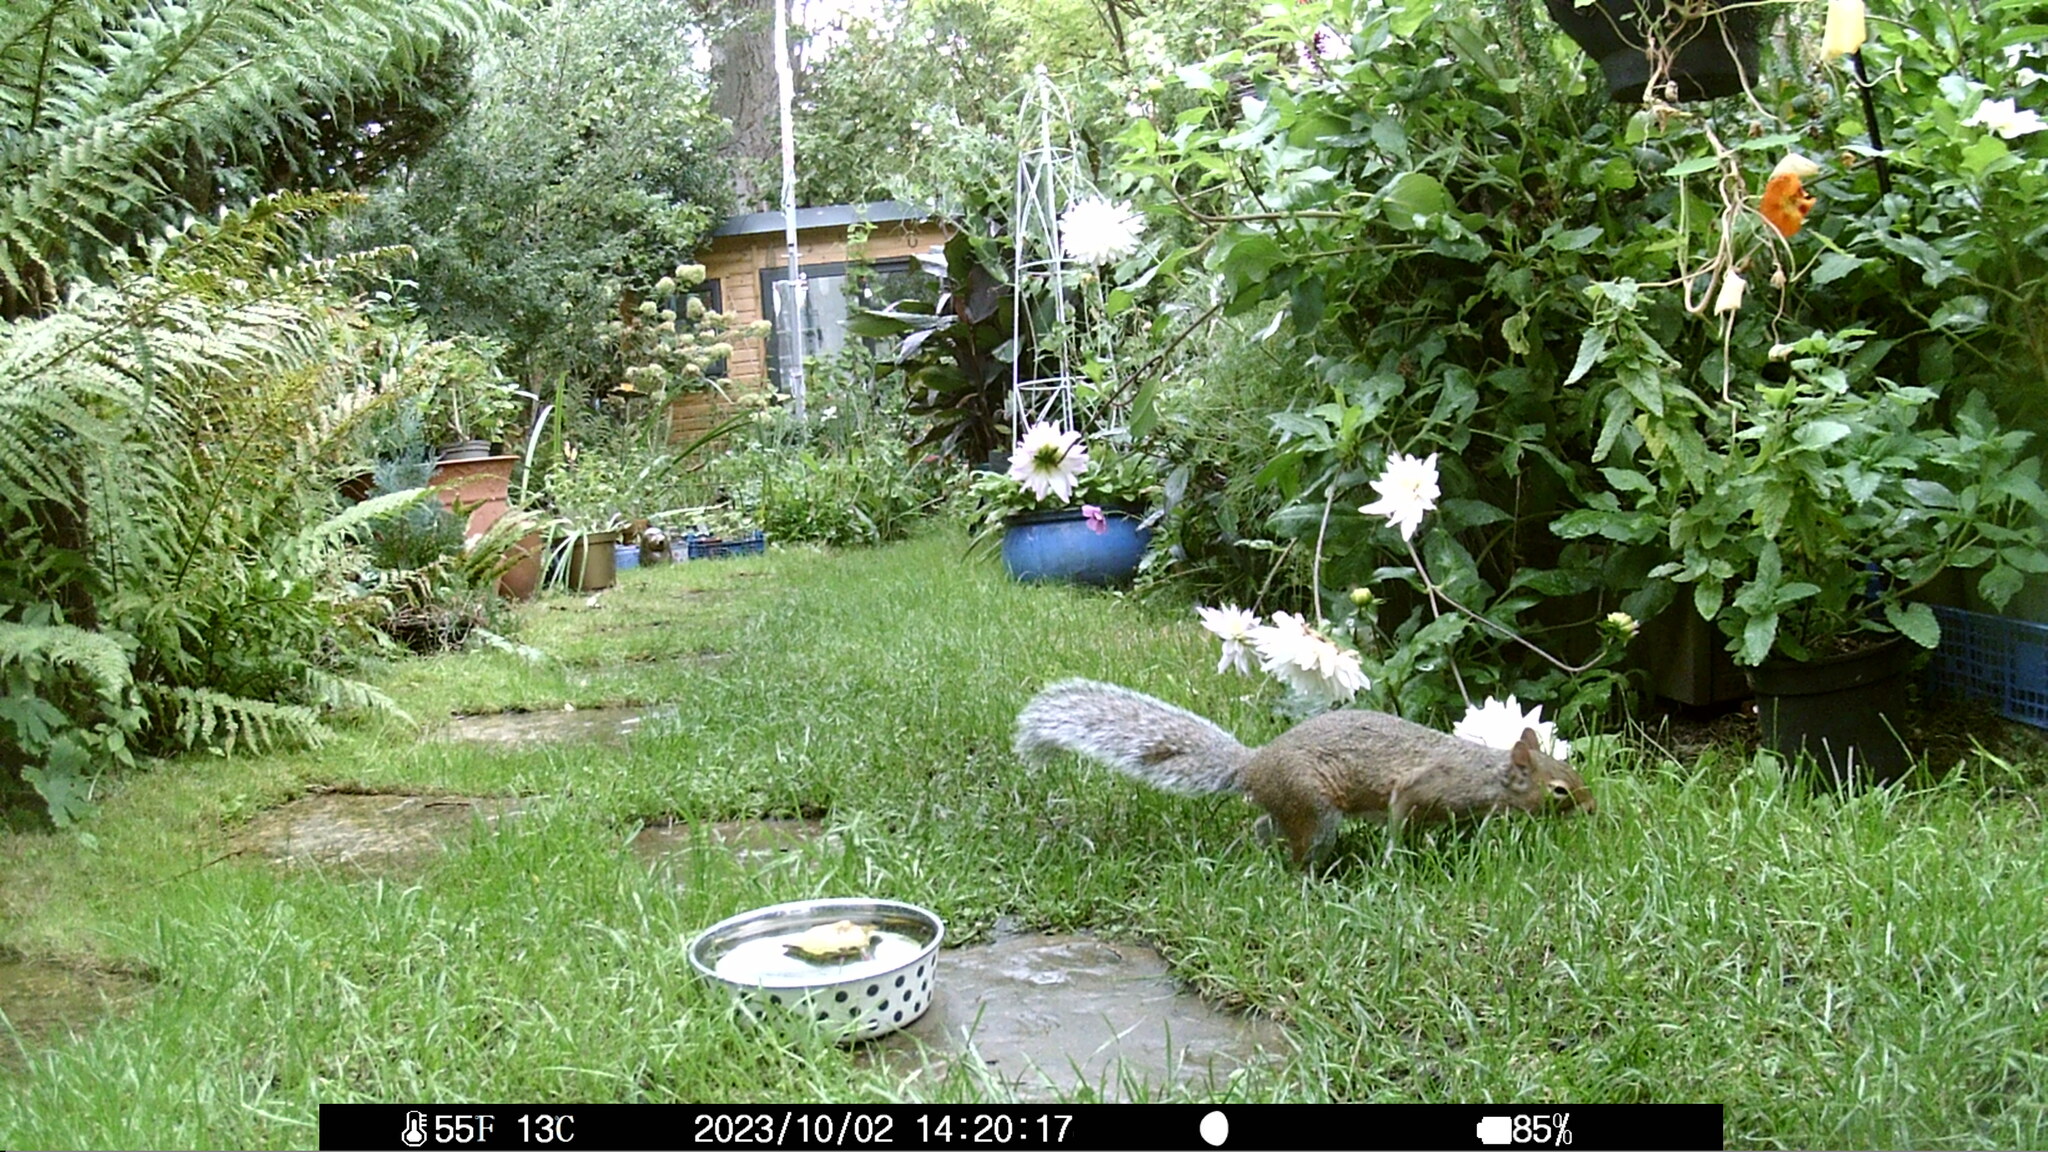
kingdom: Animalia
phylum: Chordata
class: Mammalia
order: Rodentia
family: Sciuridae
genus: Sciurus
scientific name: Sciurus carolinensis
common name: Eastern gray squirrel
